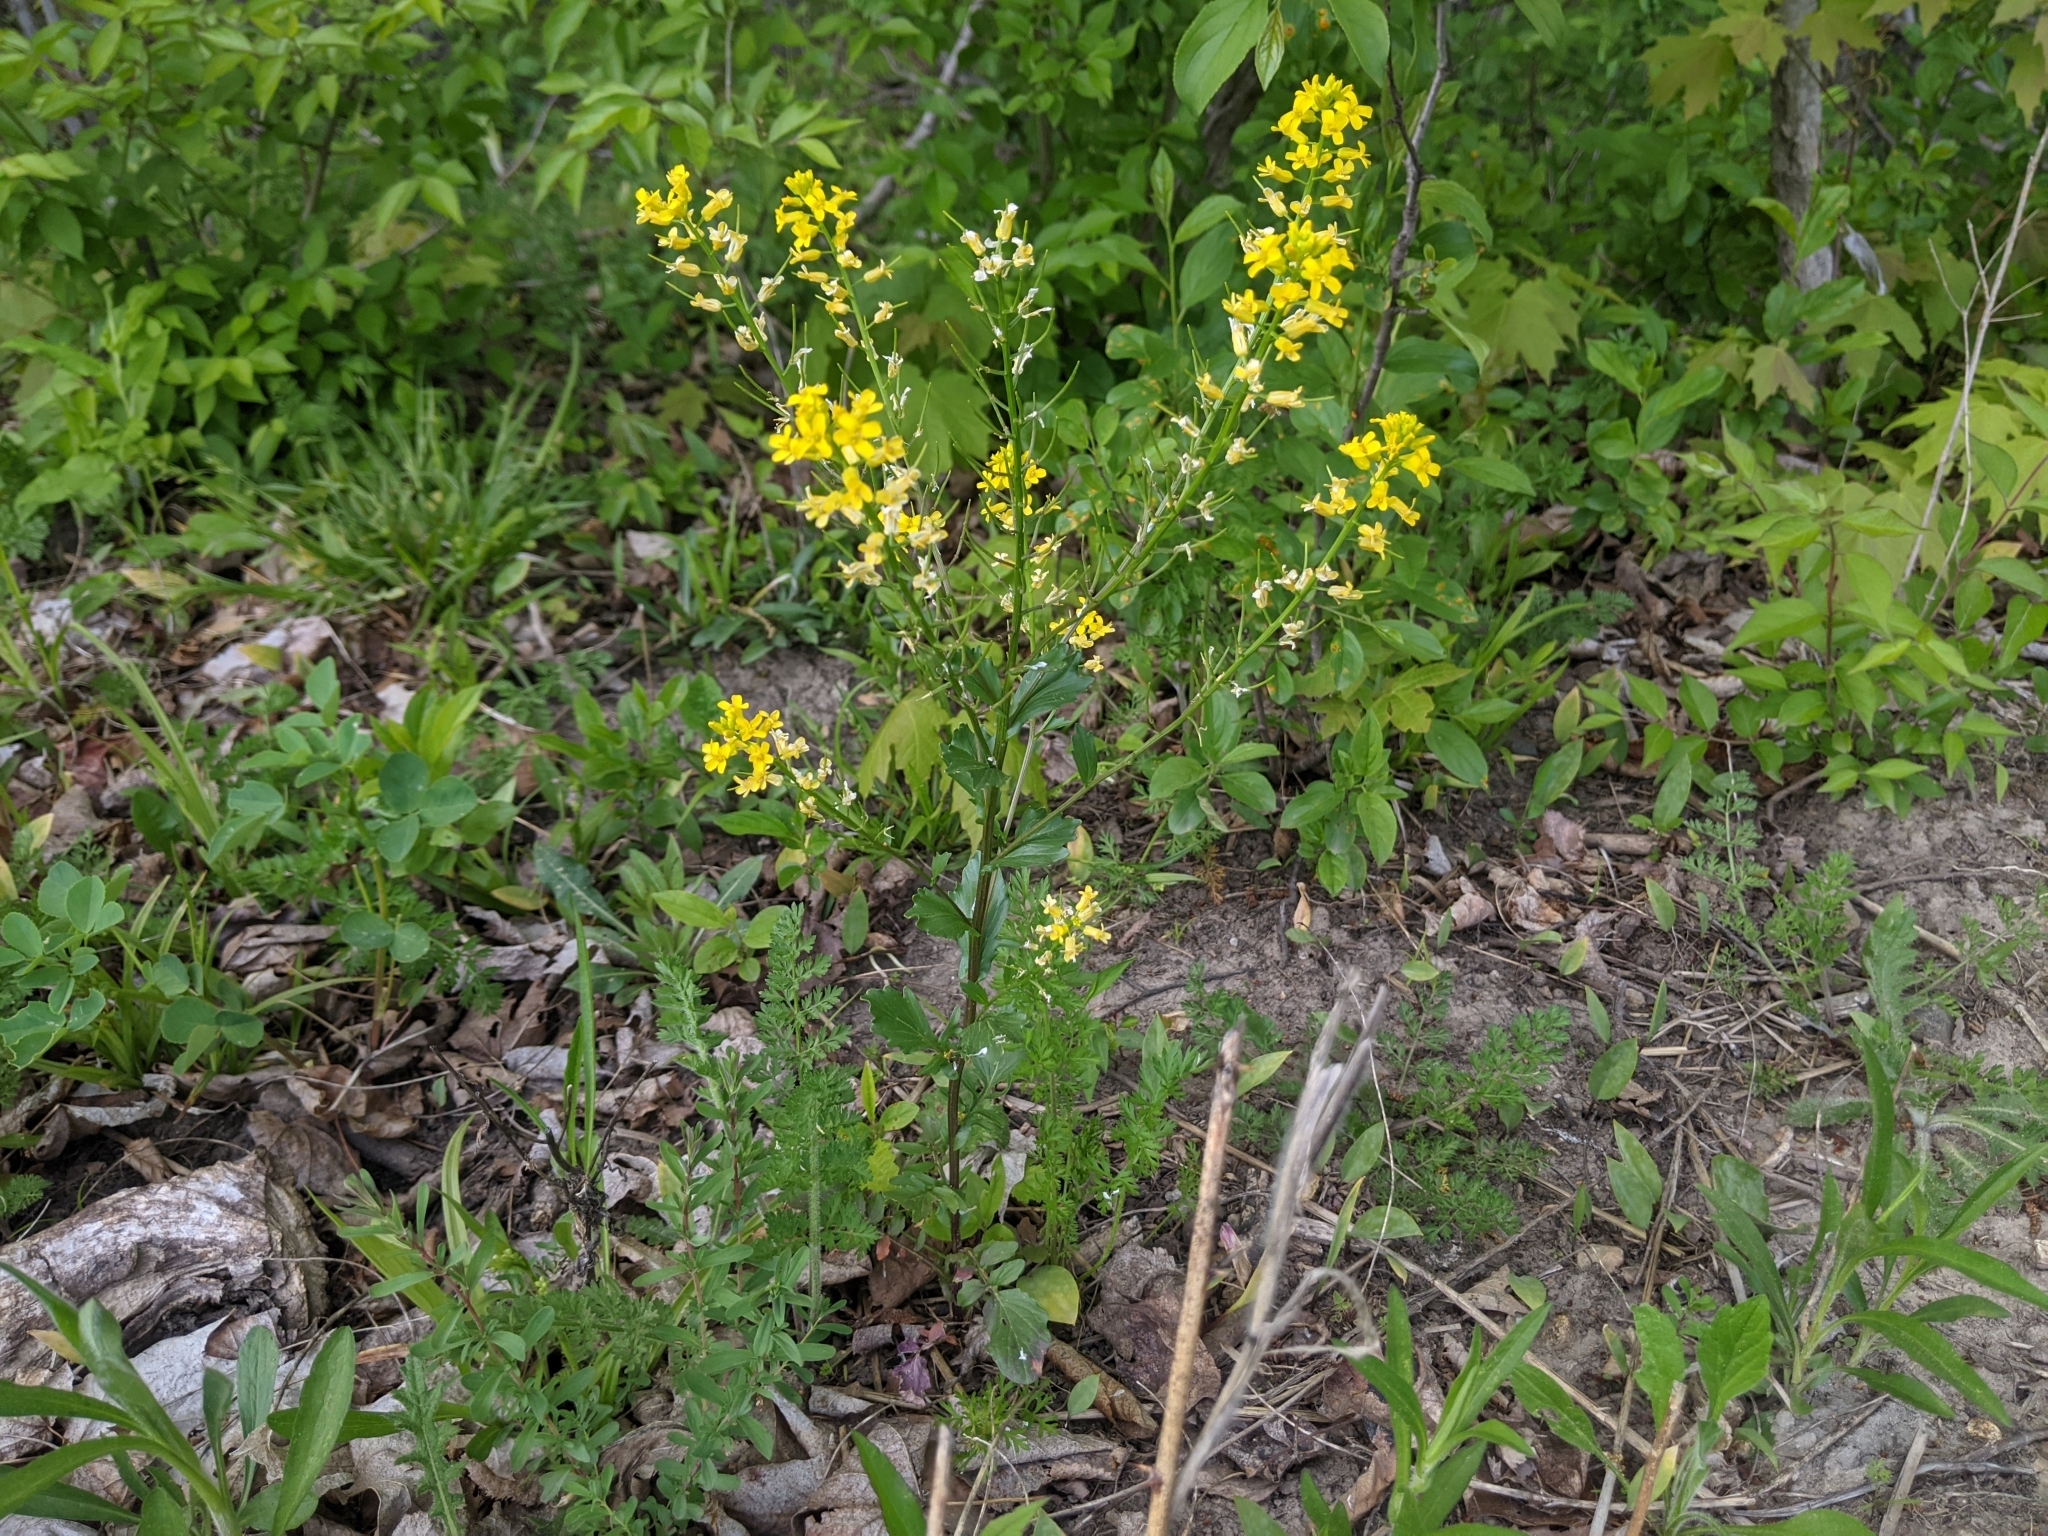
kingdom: Plantae
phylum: Tracheophyta
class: Magnoliopsida
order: Brassicales
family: Brassicaceae
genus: Barbarea
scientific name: Barbarea vulgaris
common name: Cressy-greens
